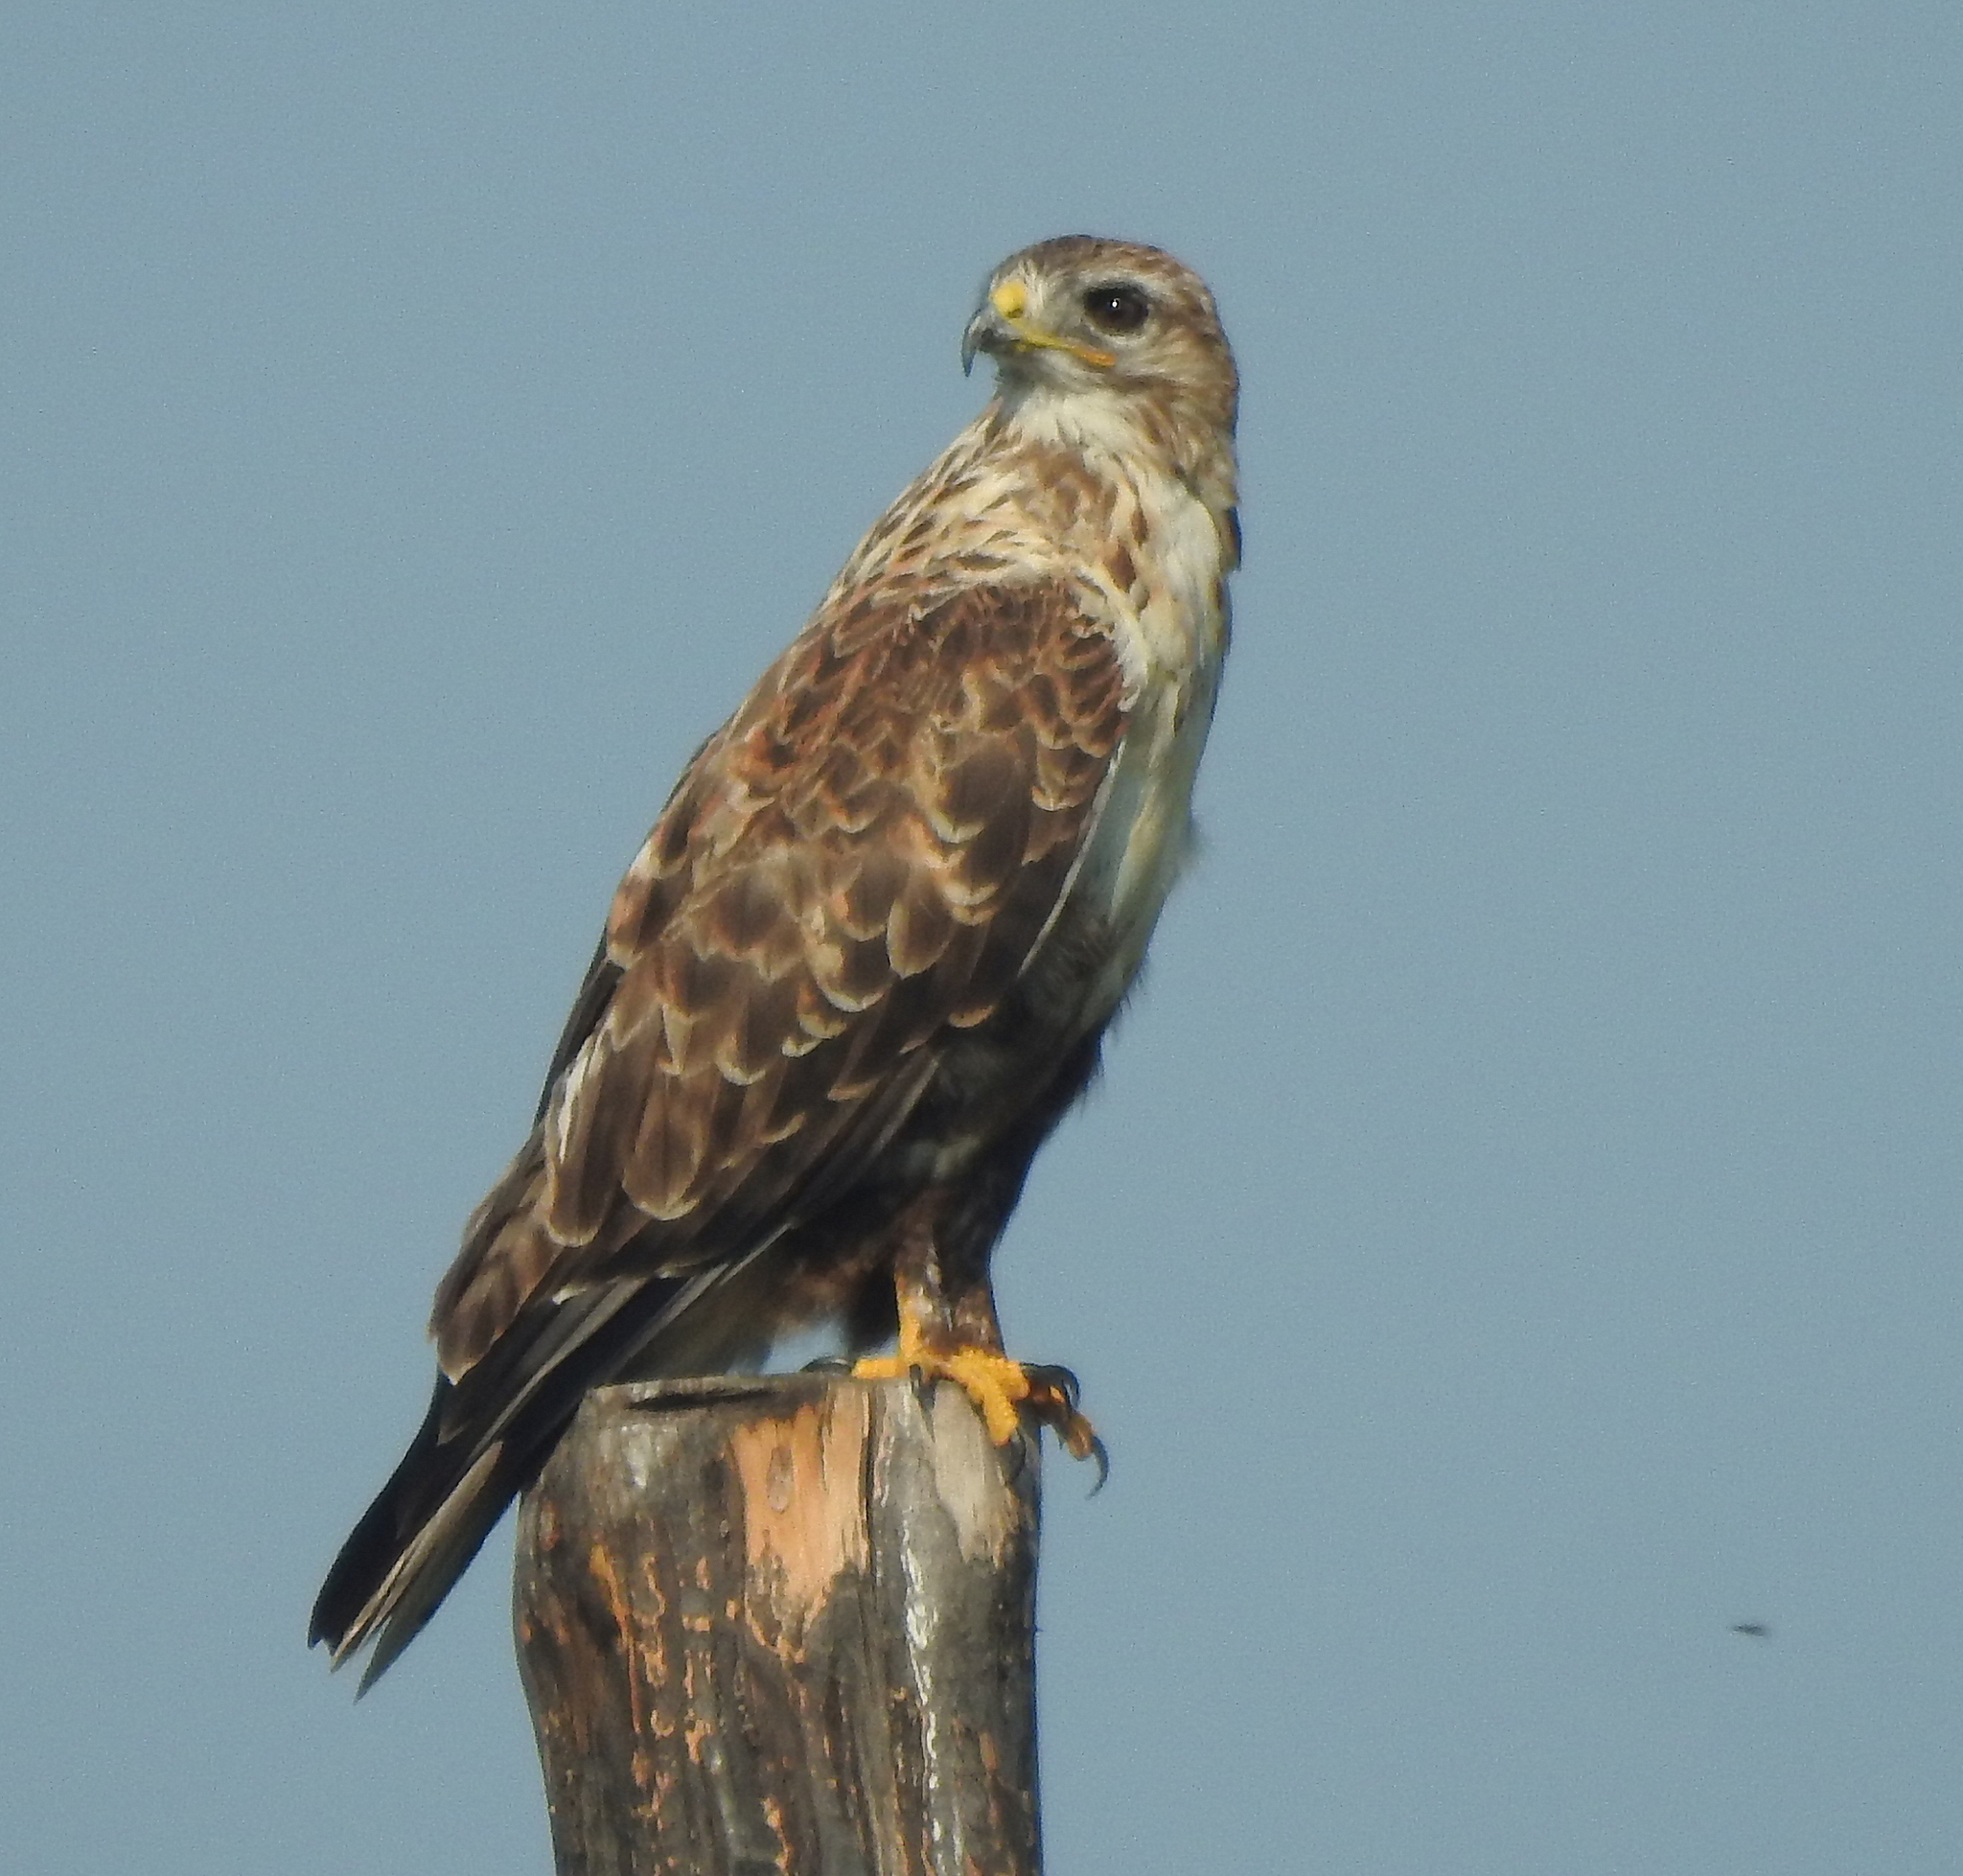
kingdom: Animalia
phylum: Chordata
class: Aves
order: Accipitriformes
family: Accipitridae
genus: Buteo
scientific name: Buteo hemilasius
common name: Upland buzzard
